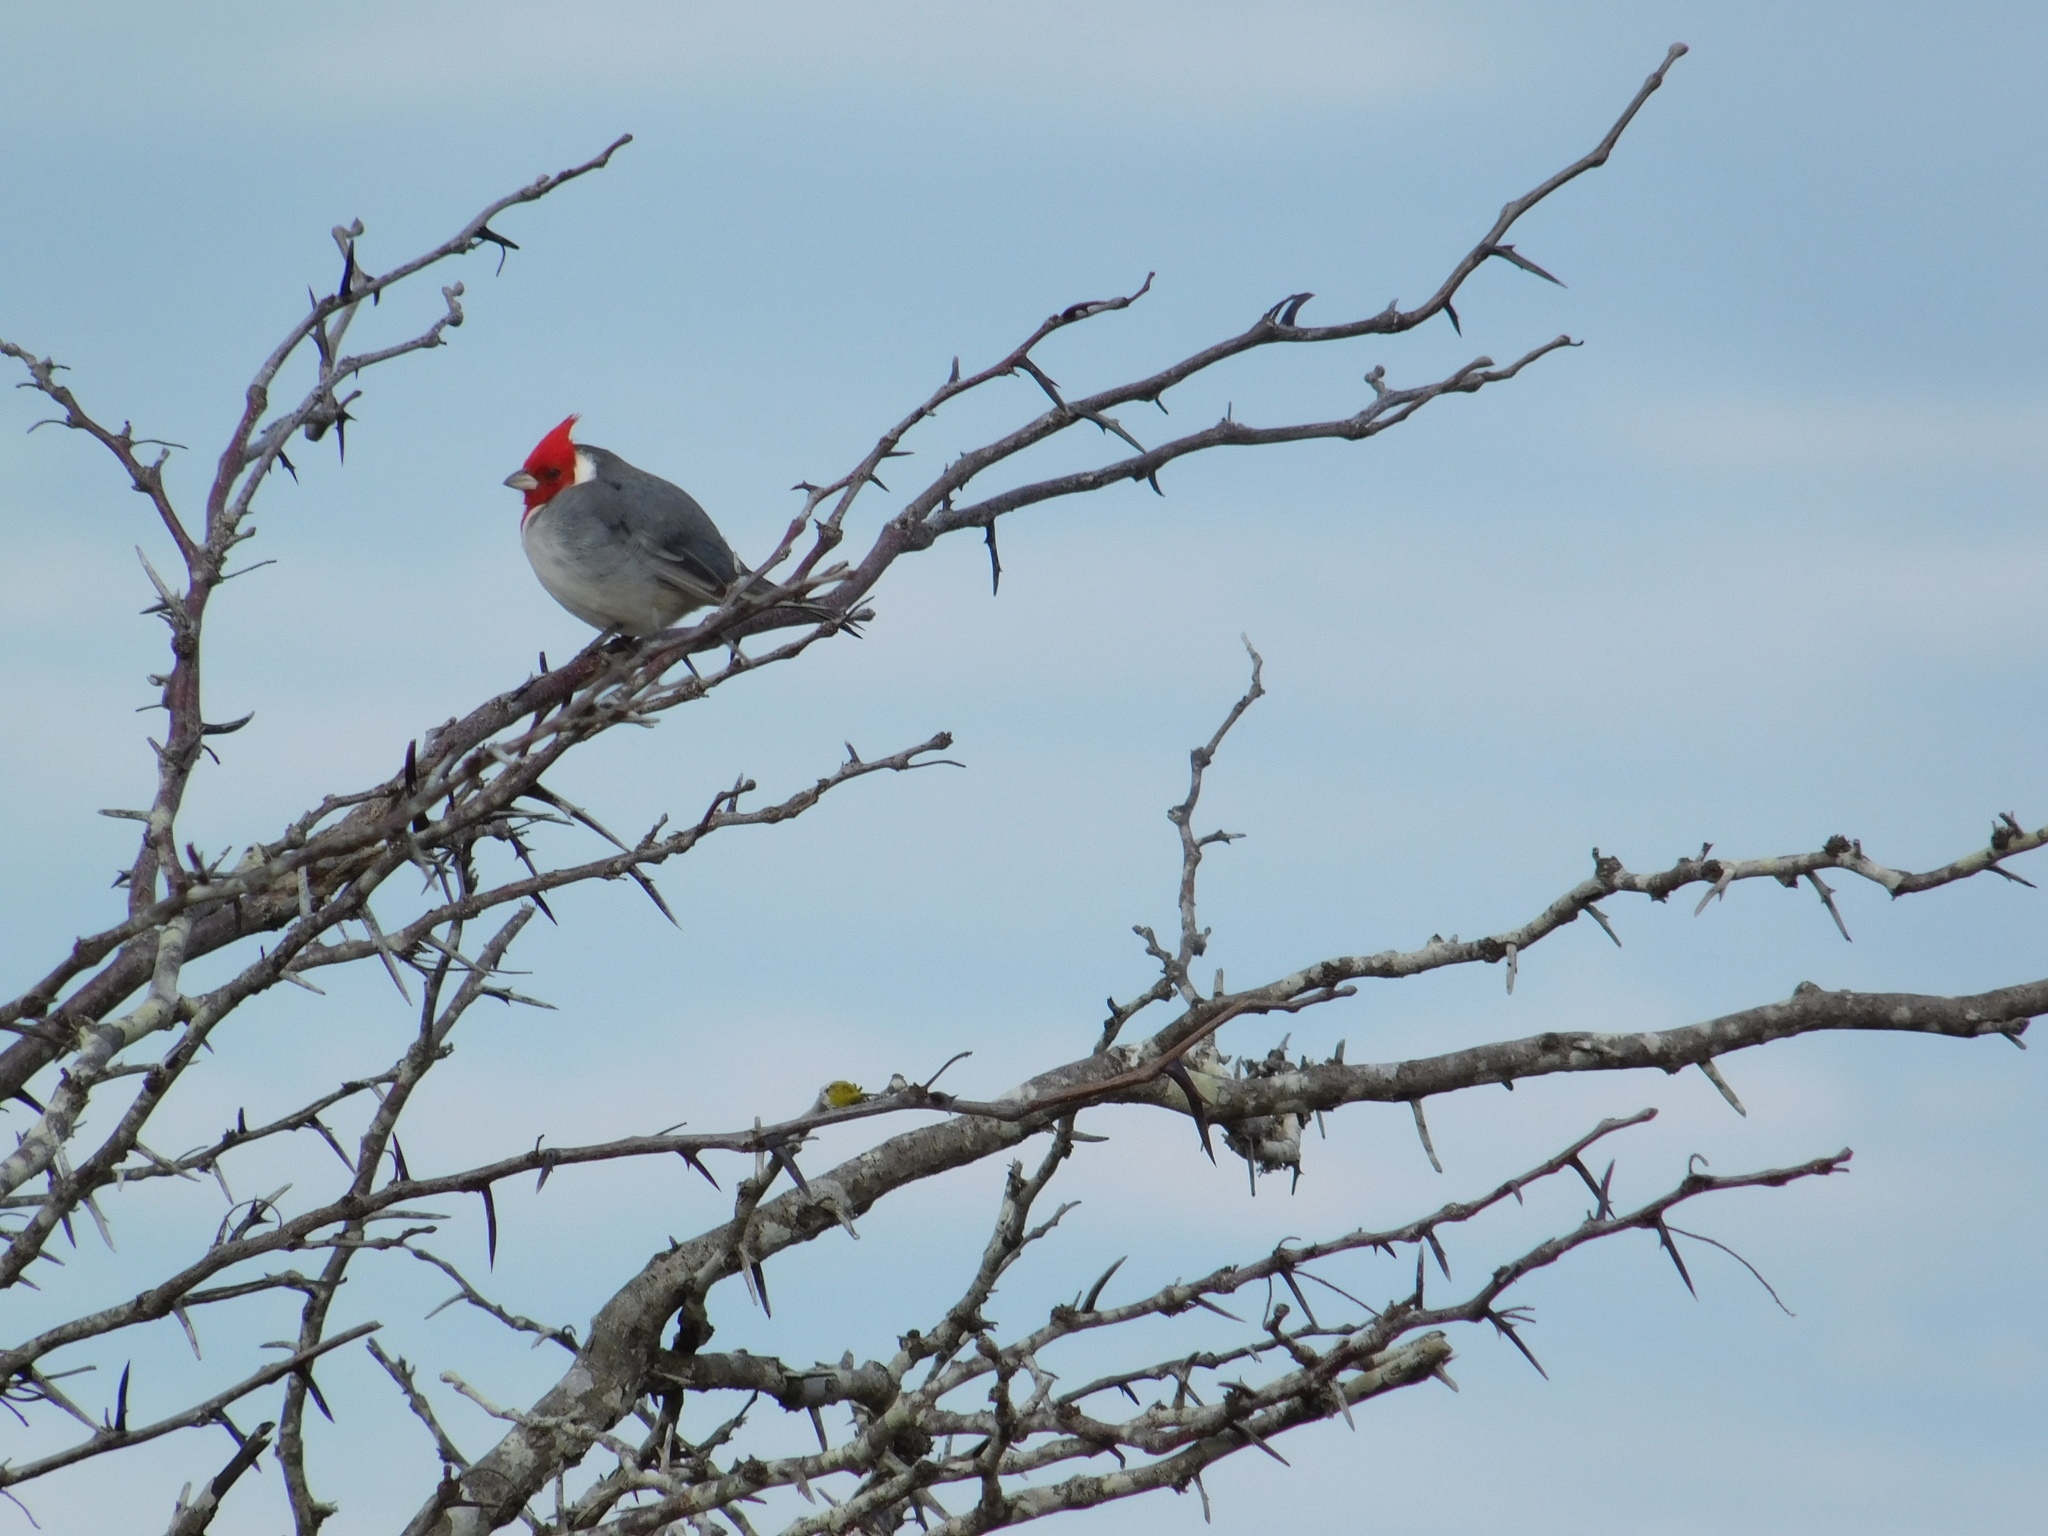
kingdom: Animalia
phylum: Chordata
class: Aves
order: Passeriformes
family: Thraupidae
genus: Paroaria
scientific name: Paroaria coronata
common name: Red-crested cardinal
